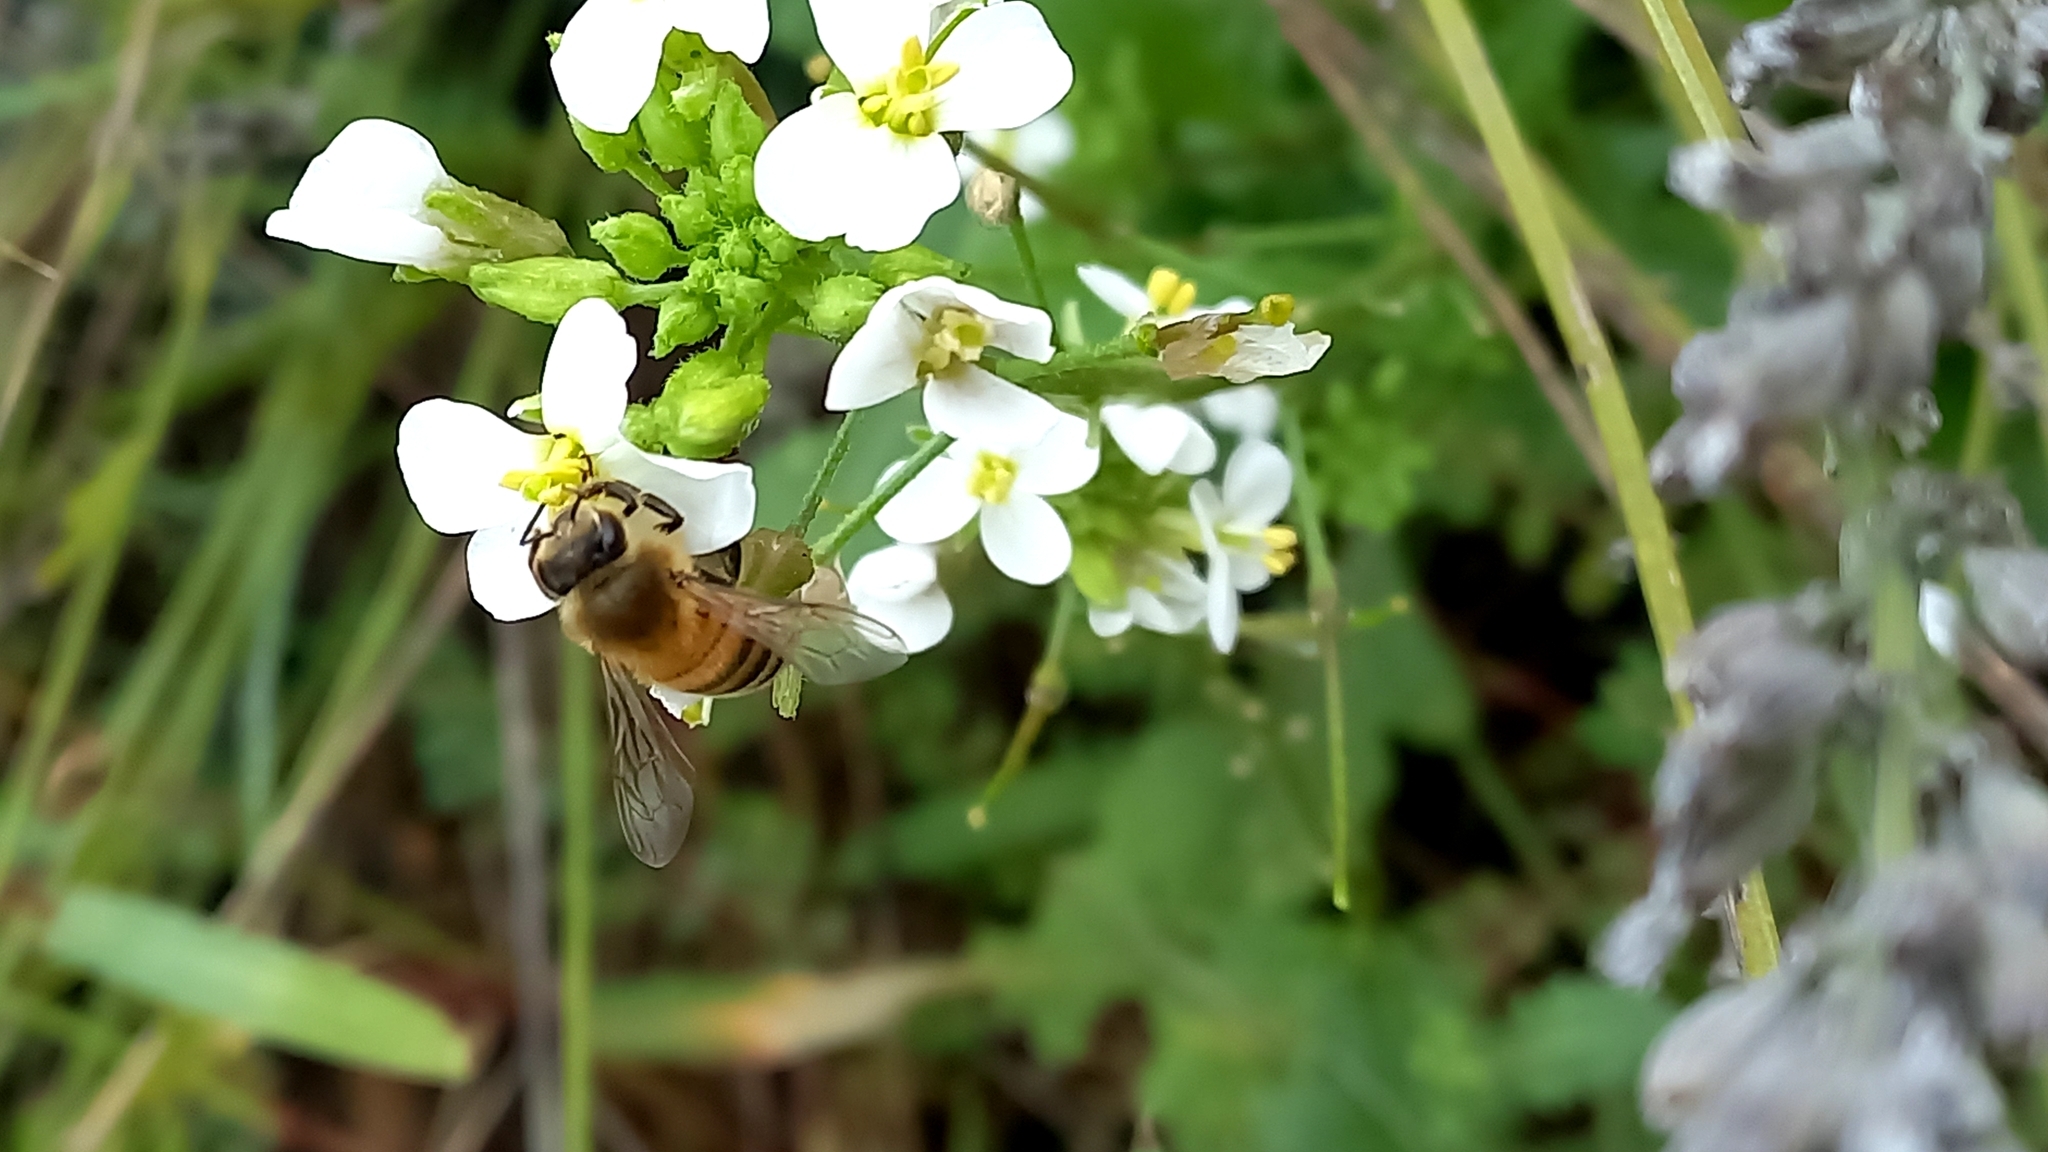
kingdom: Animalia
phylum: Arthropoda
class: Insecta
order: Hymenoptera
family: Apidae
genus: Apis
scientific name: Apis mellifera
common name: Honey bee
